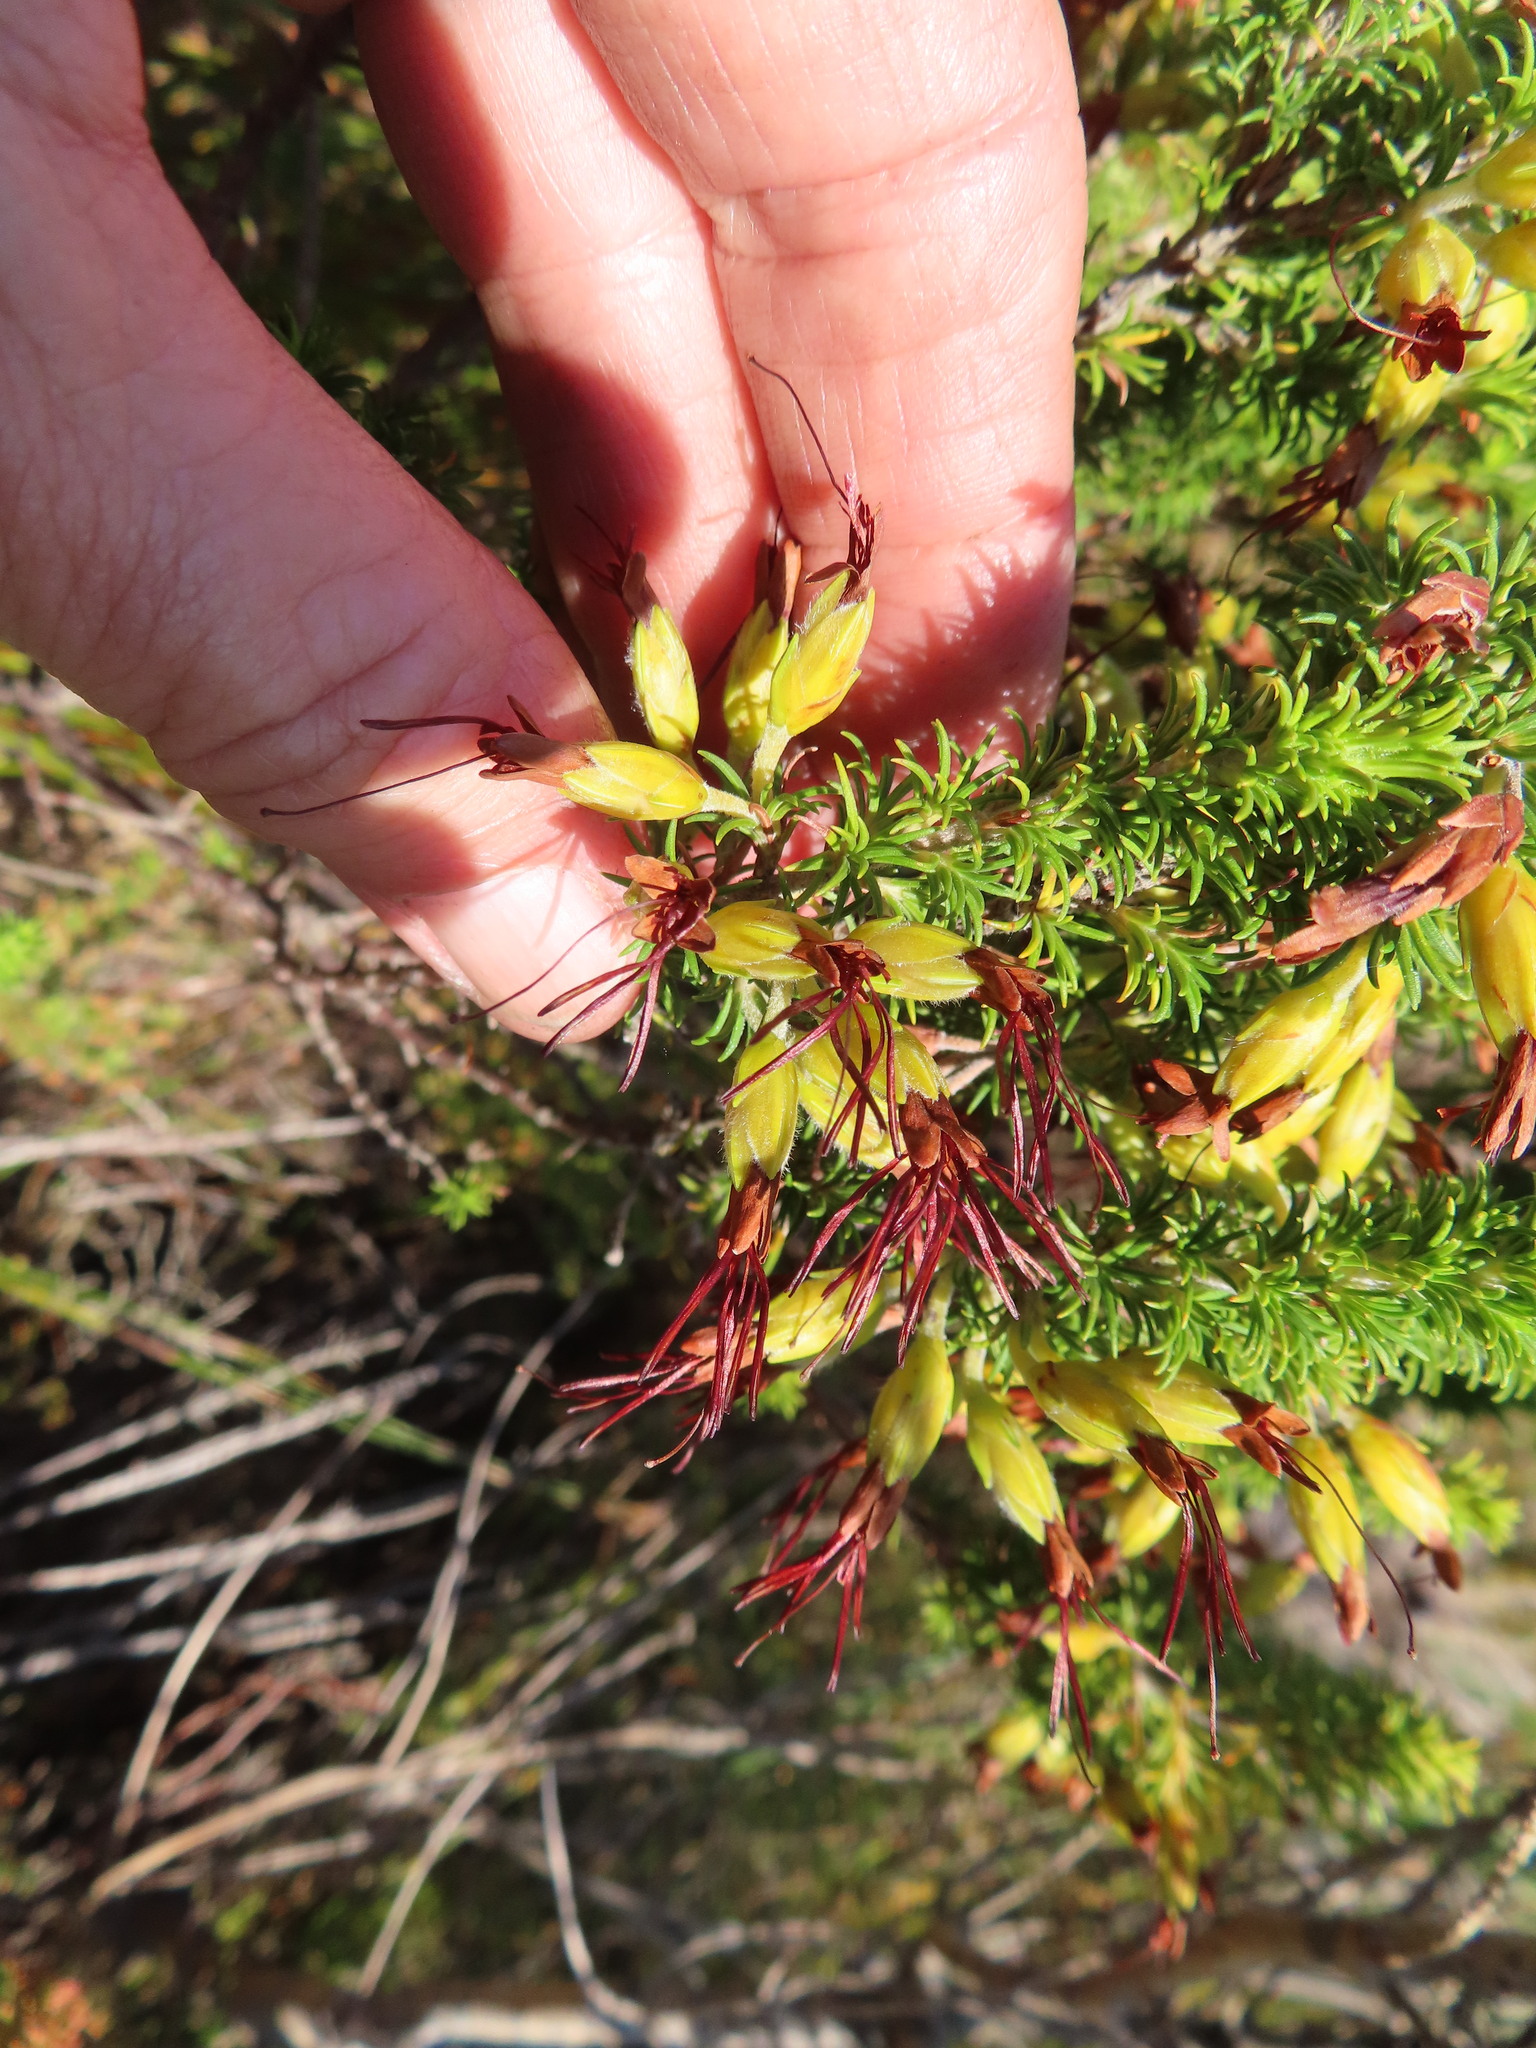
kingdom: Plantae
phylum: Tracheophyta
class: Magnoliopsida
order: Ericales
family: Ericaceae
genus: Erica
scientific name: Erica coccinea
